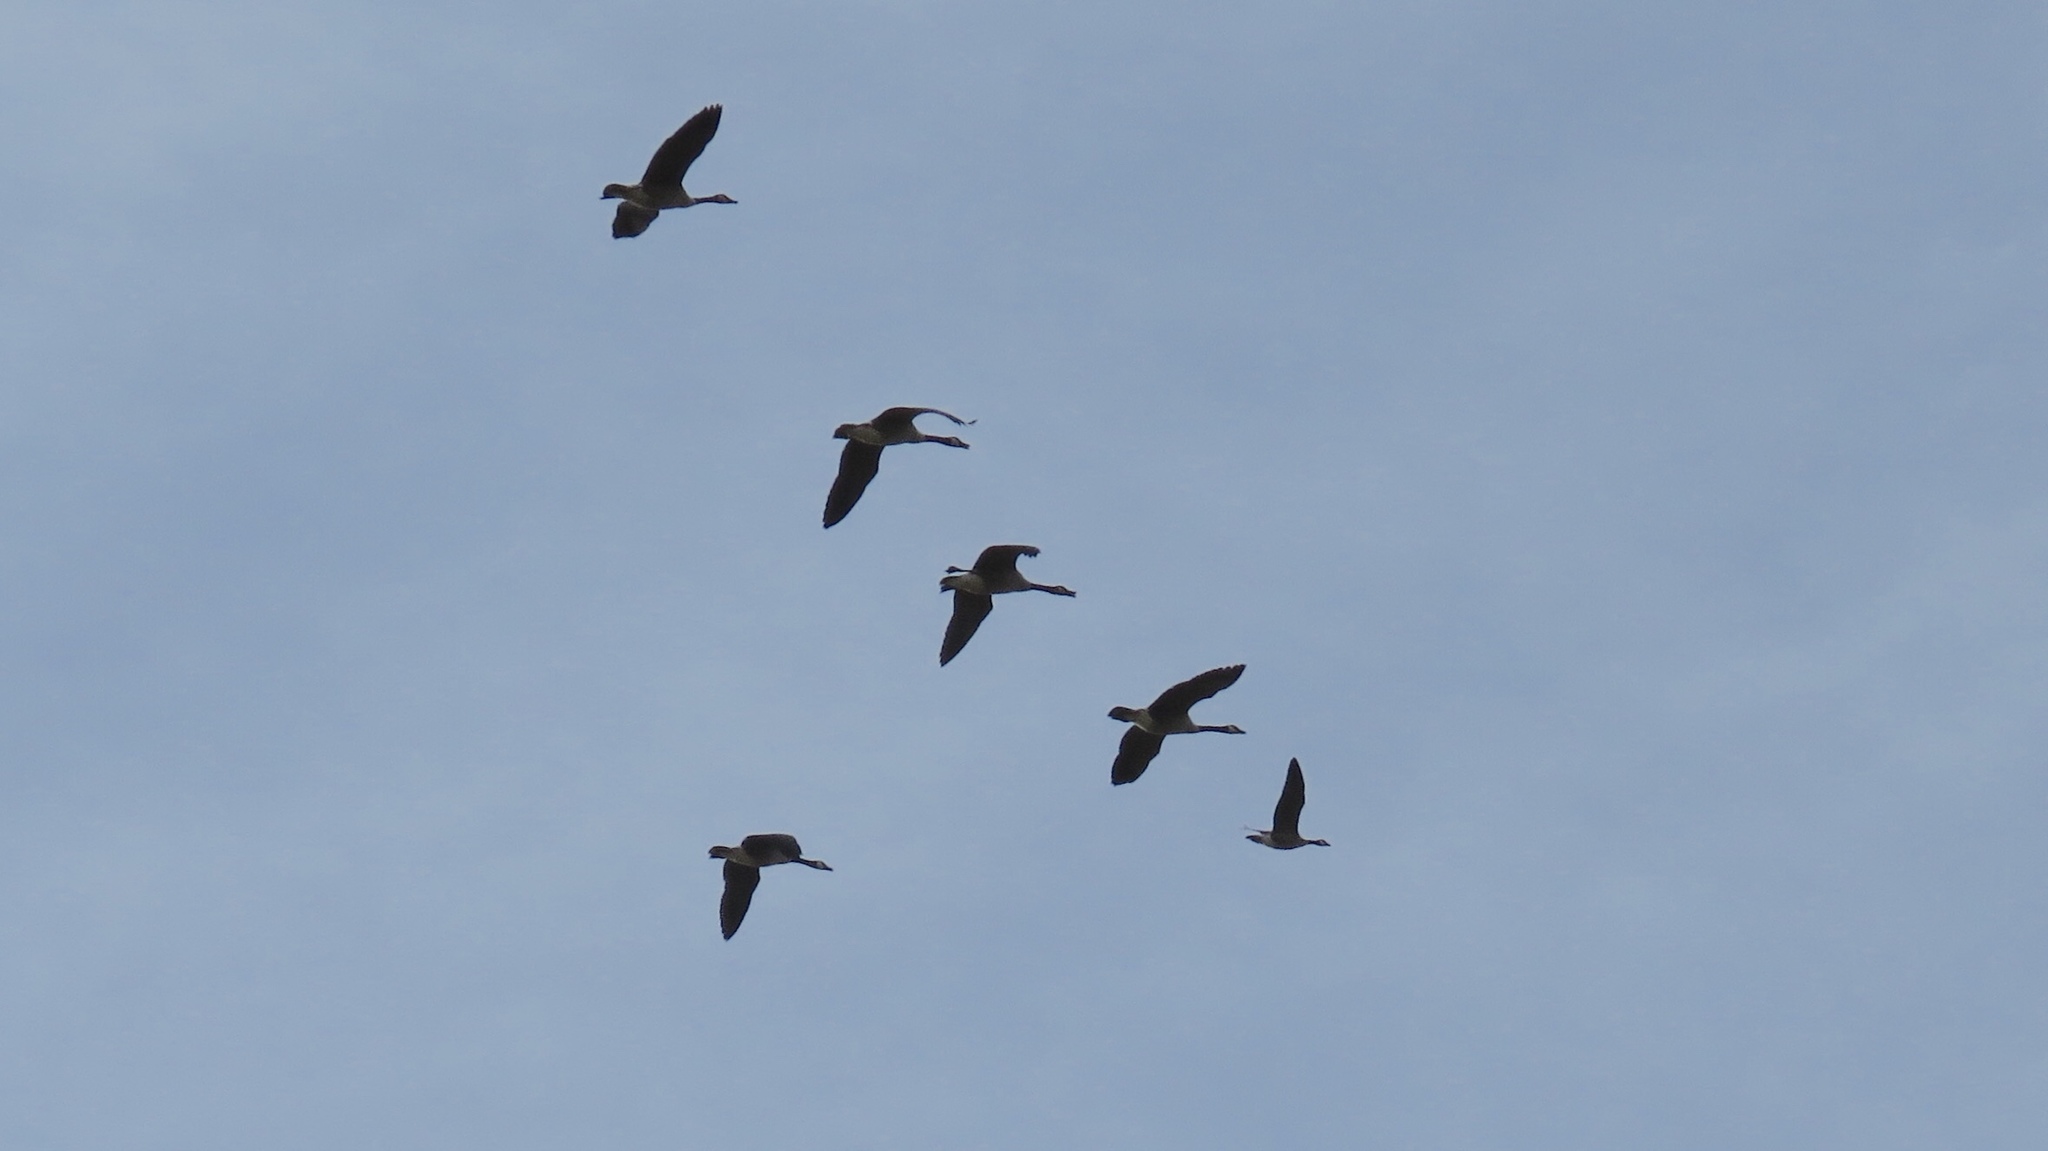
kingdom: Animalia
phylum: Chordata
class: Aves
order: Anseriformes
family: Anatidae
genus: Branta
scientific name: Branta hutchinsii
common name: Cackling goose
